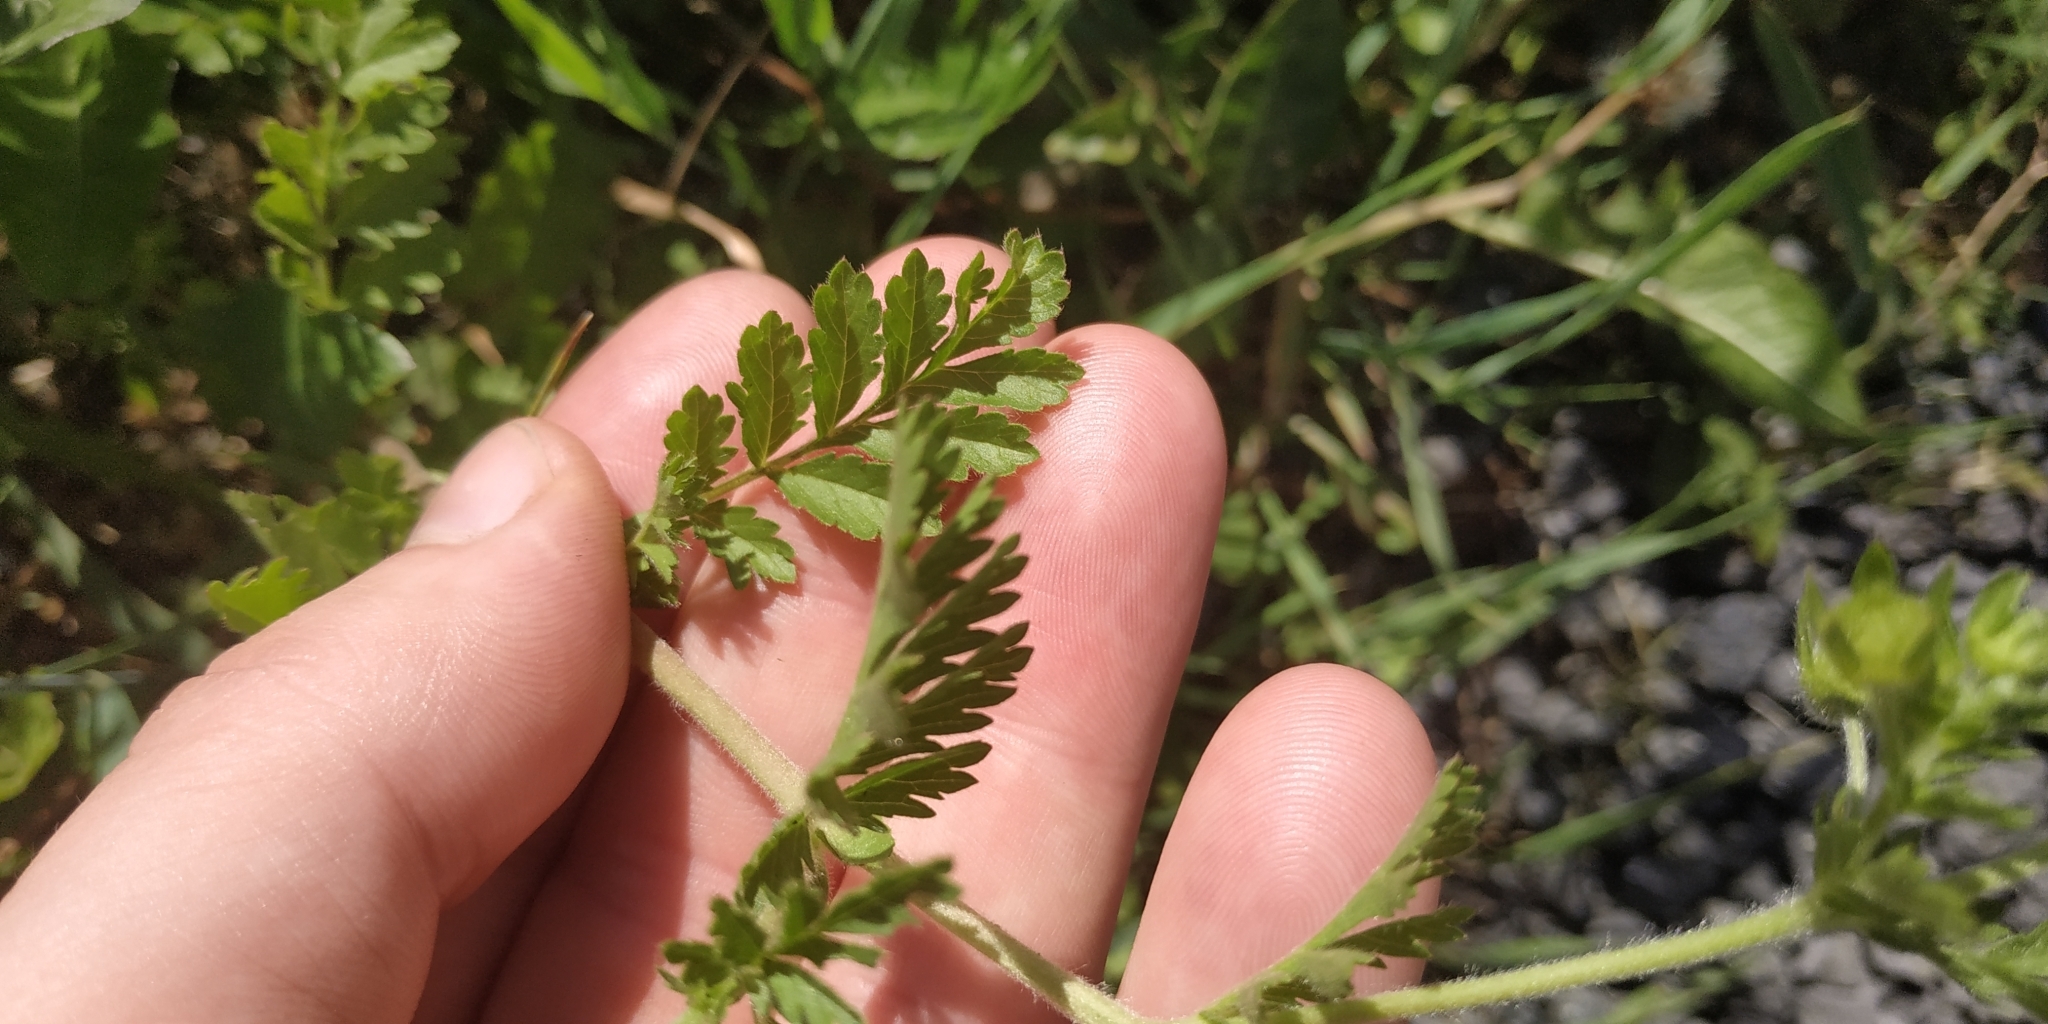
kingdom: Plantae
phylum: Tracheophyta
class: Magnoliopsida
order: Rosales
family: Rosaceae
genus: Potentilla
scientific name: Potentilla supina
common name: Prostrate cinquefoil
